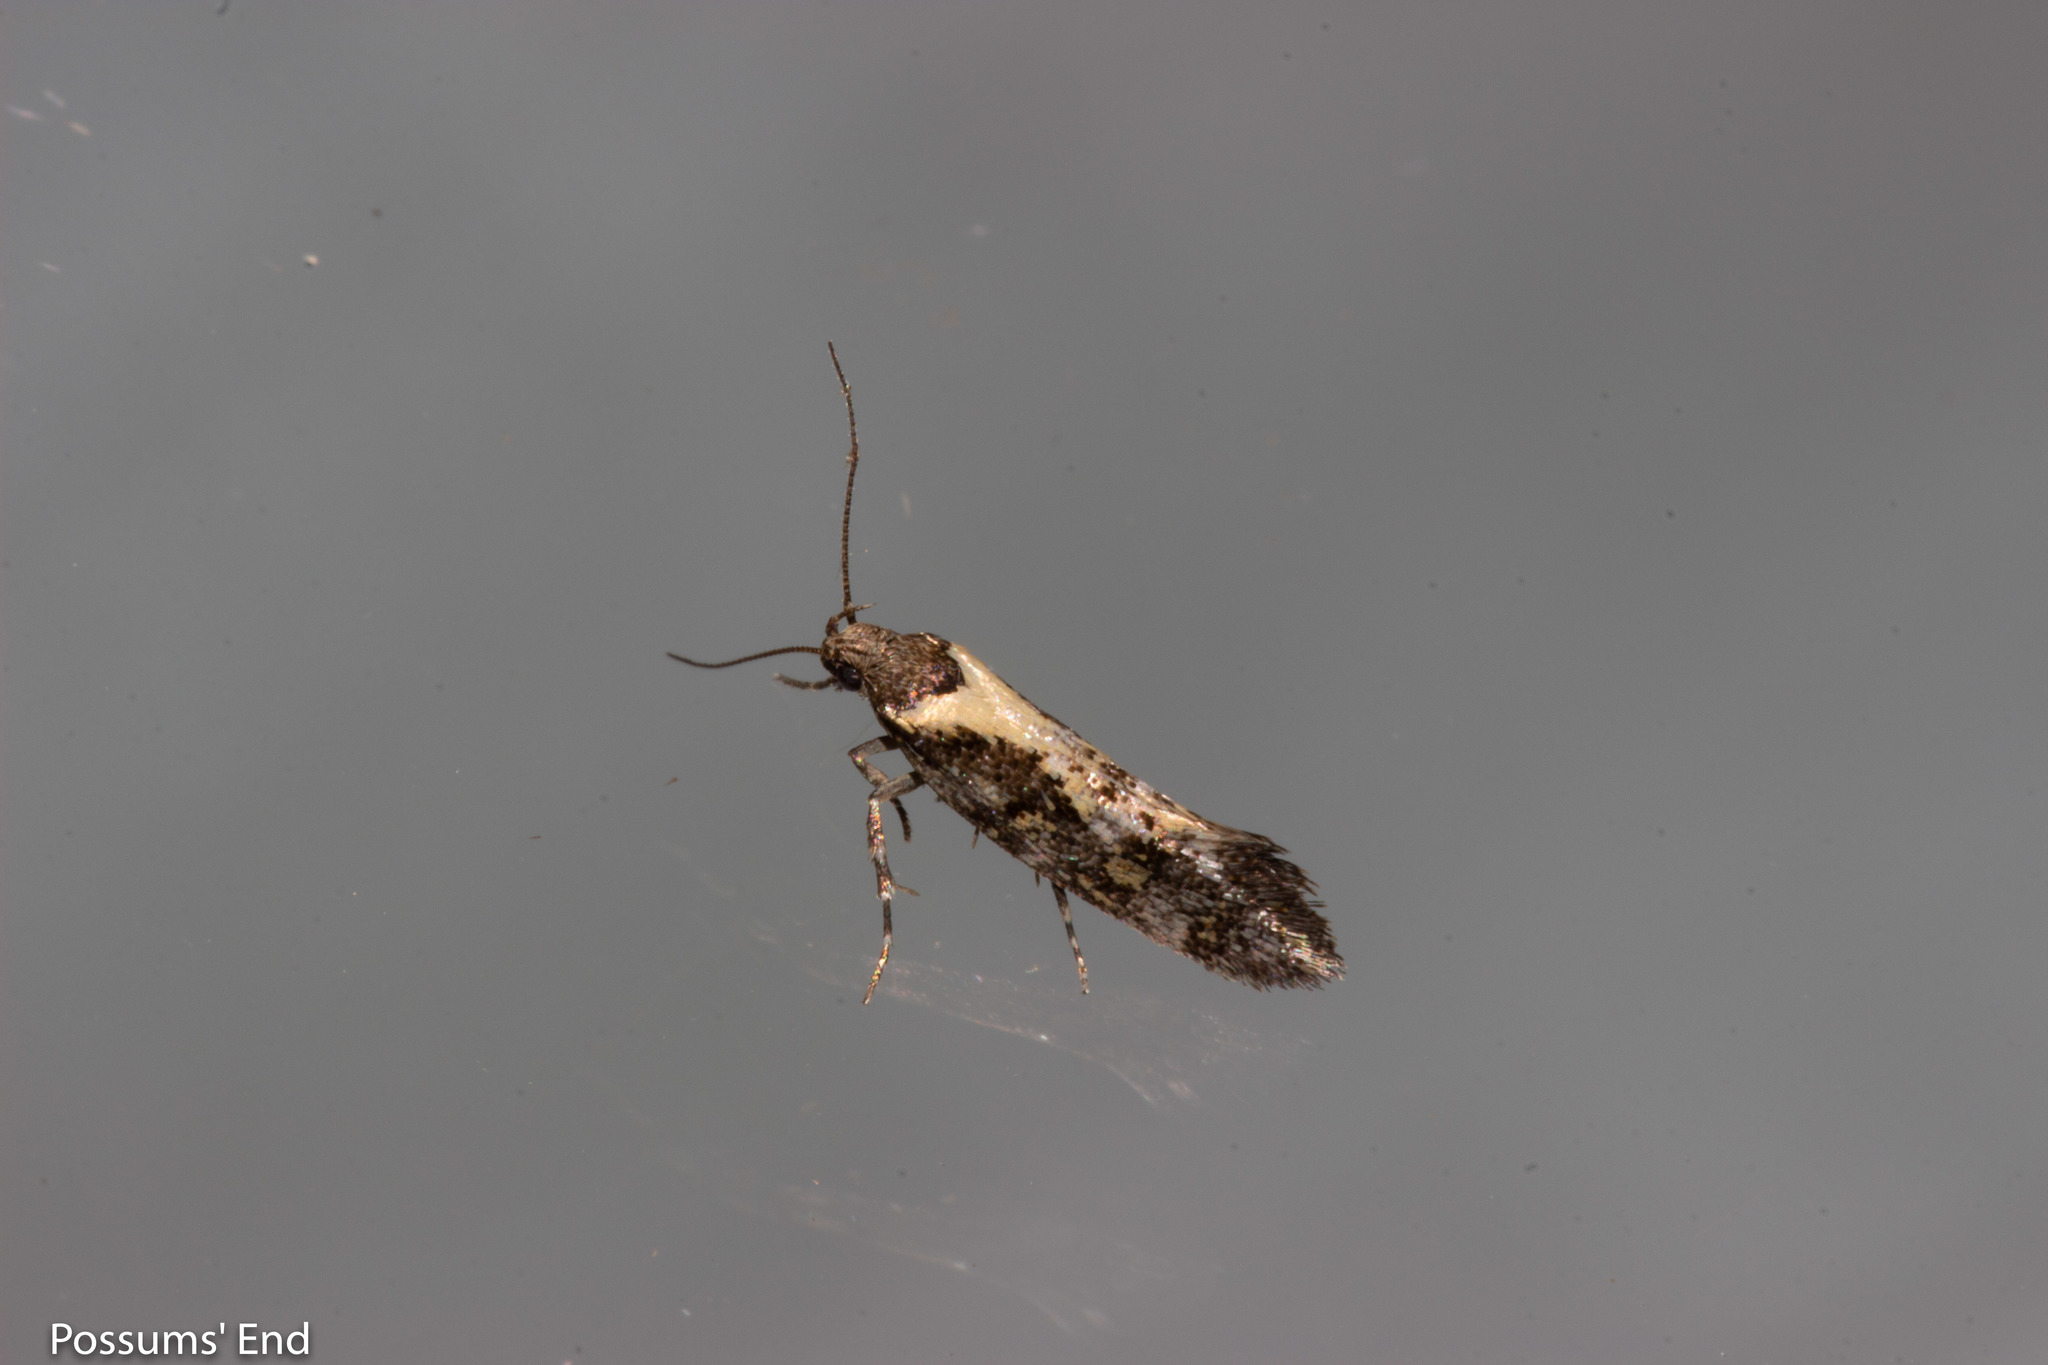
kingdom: Animalia
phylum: Arthropoda
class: Insecta
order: Lepidoptera
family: Oecophoridae
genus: Tingena
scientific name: Tingena lassa
